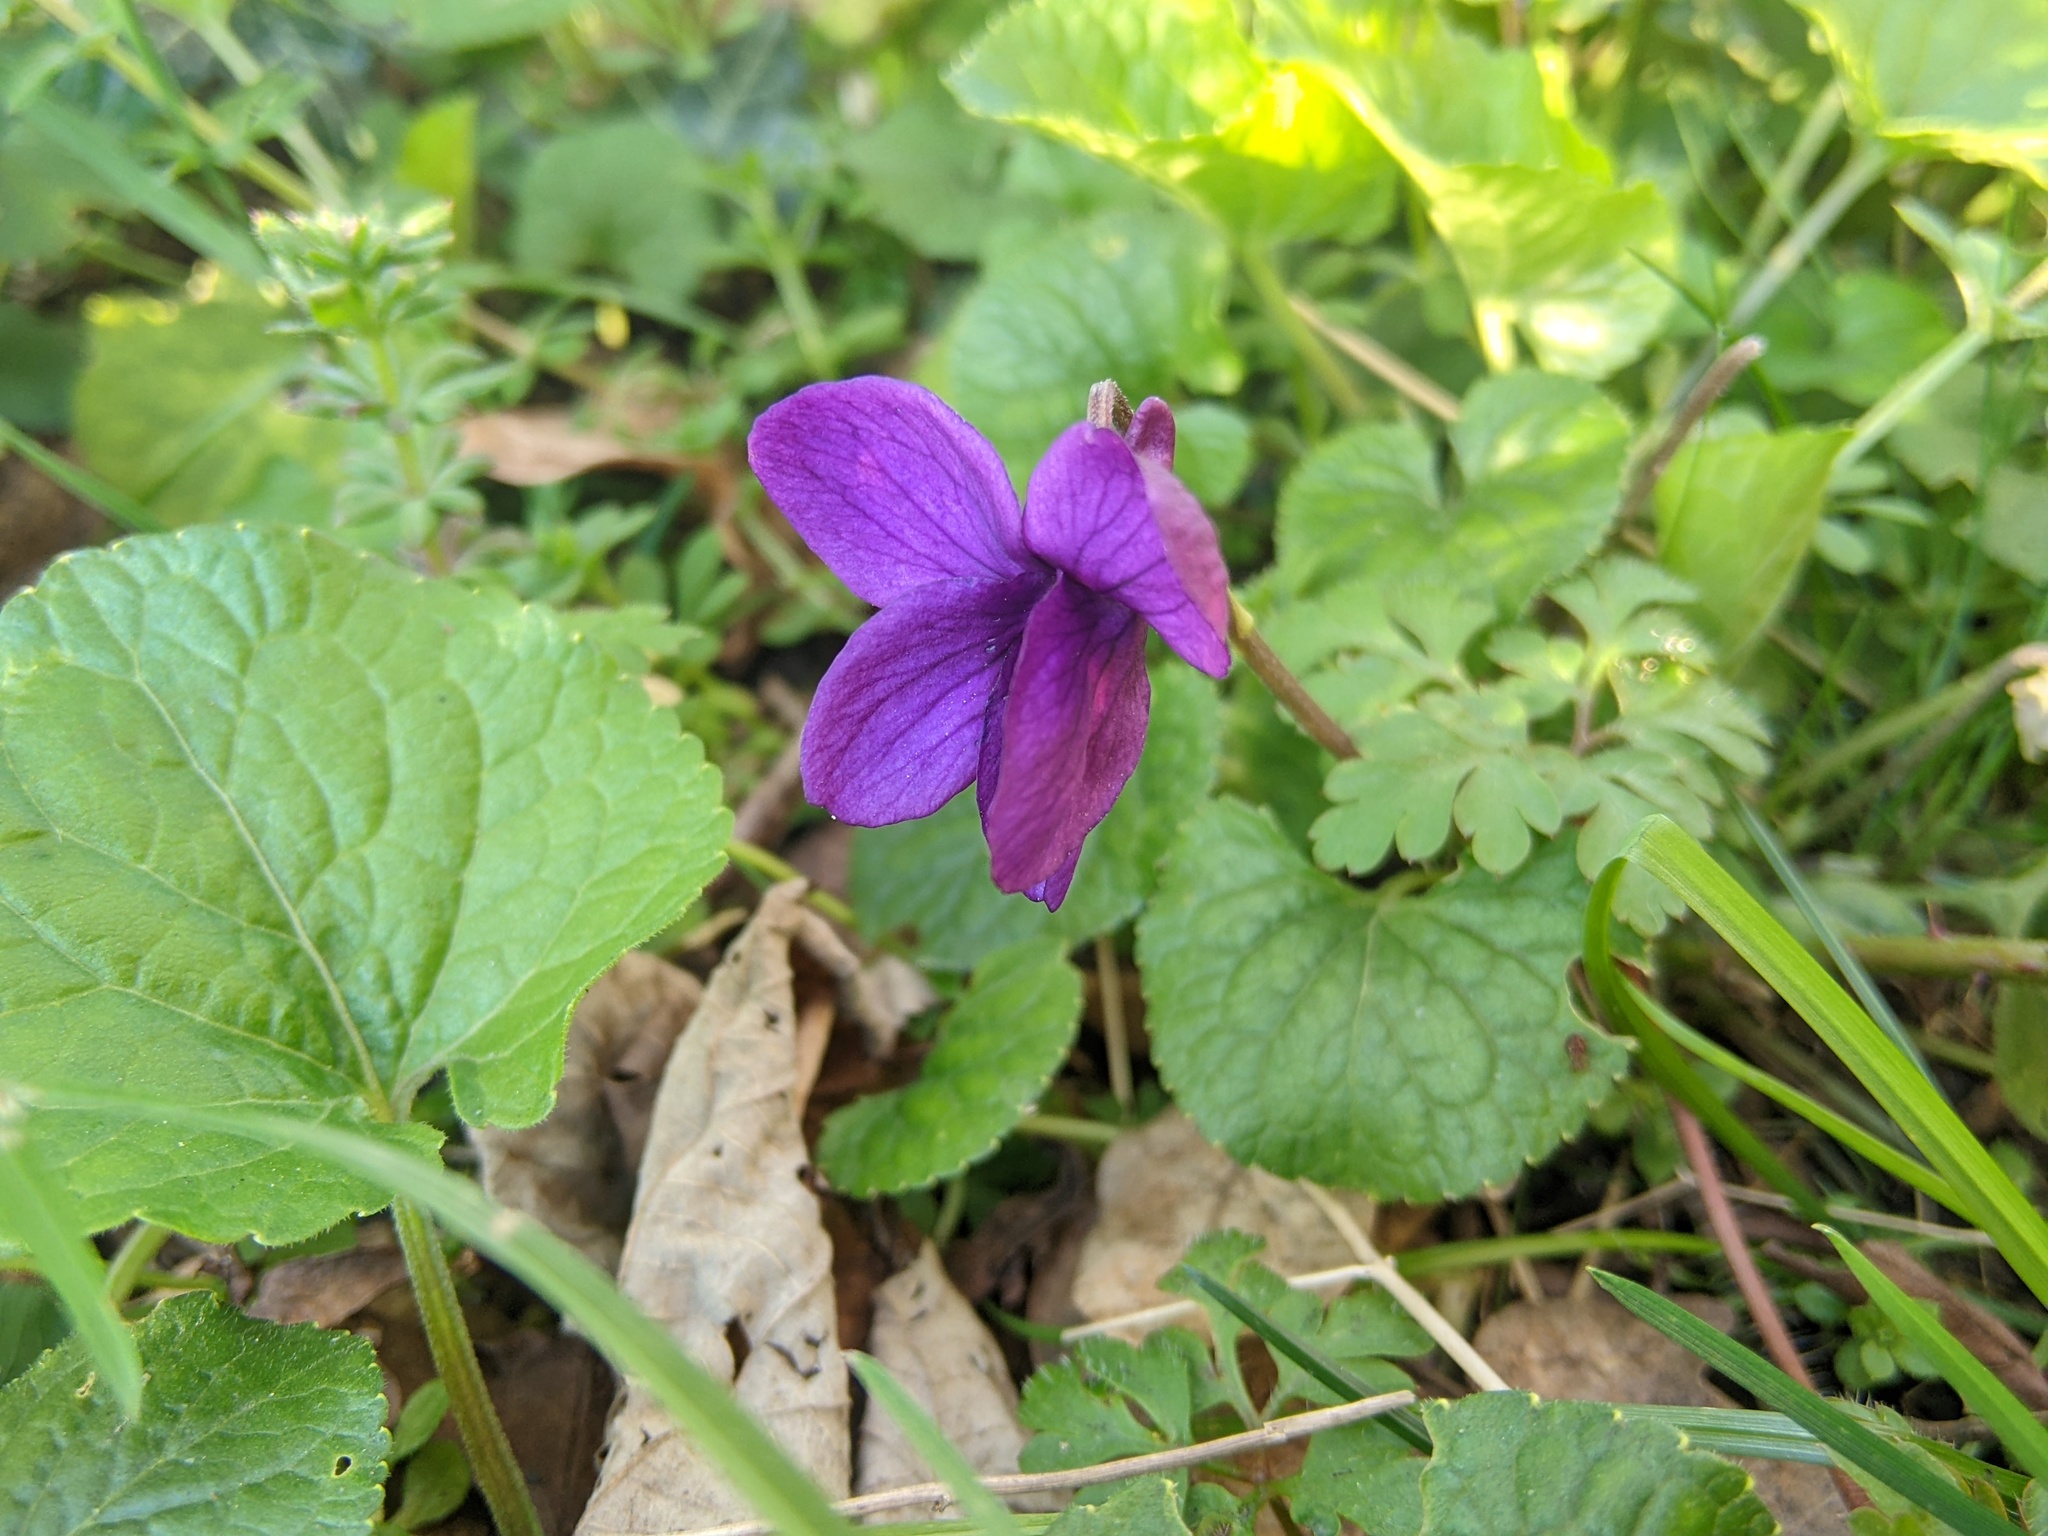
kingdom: Plantae
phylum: Tracheophyta
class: Magnoliopsida
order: Malpighiales
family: Violaceae
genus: Viola
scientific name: Viola odorata
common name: Sweet violet
